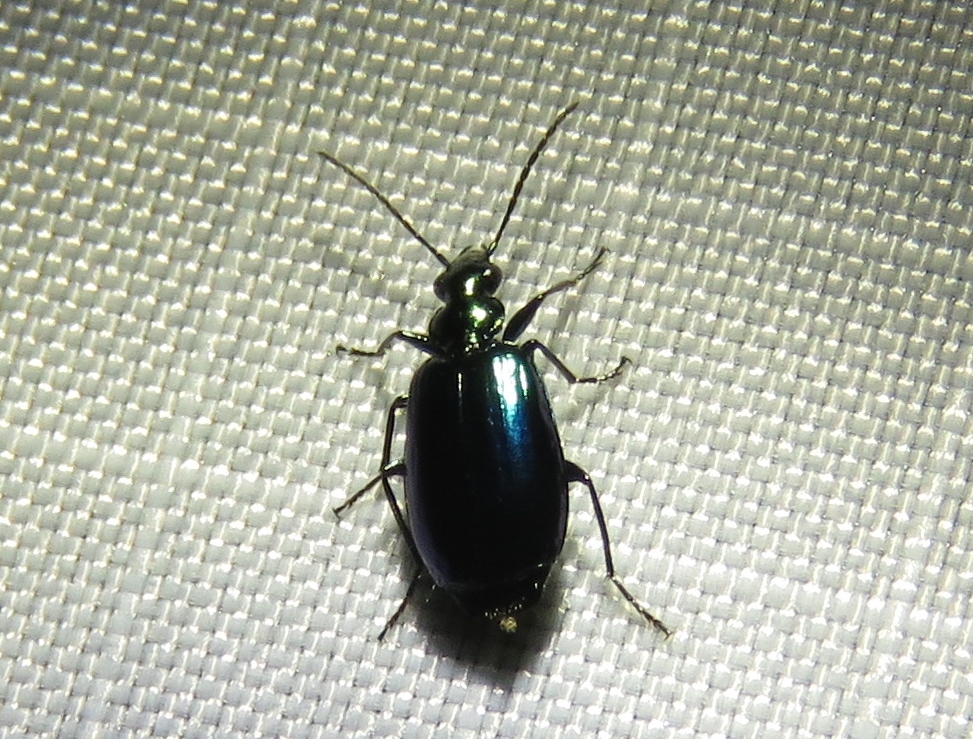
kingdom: Animalia
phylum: Arthropoda
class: Insecta
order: Coleoptera
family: Carabidae
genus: Lebia
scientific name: Lebia viridis
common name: Flower lebia beetle
